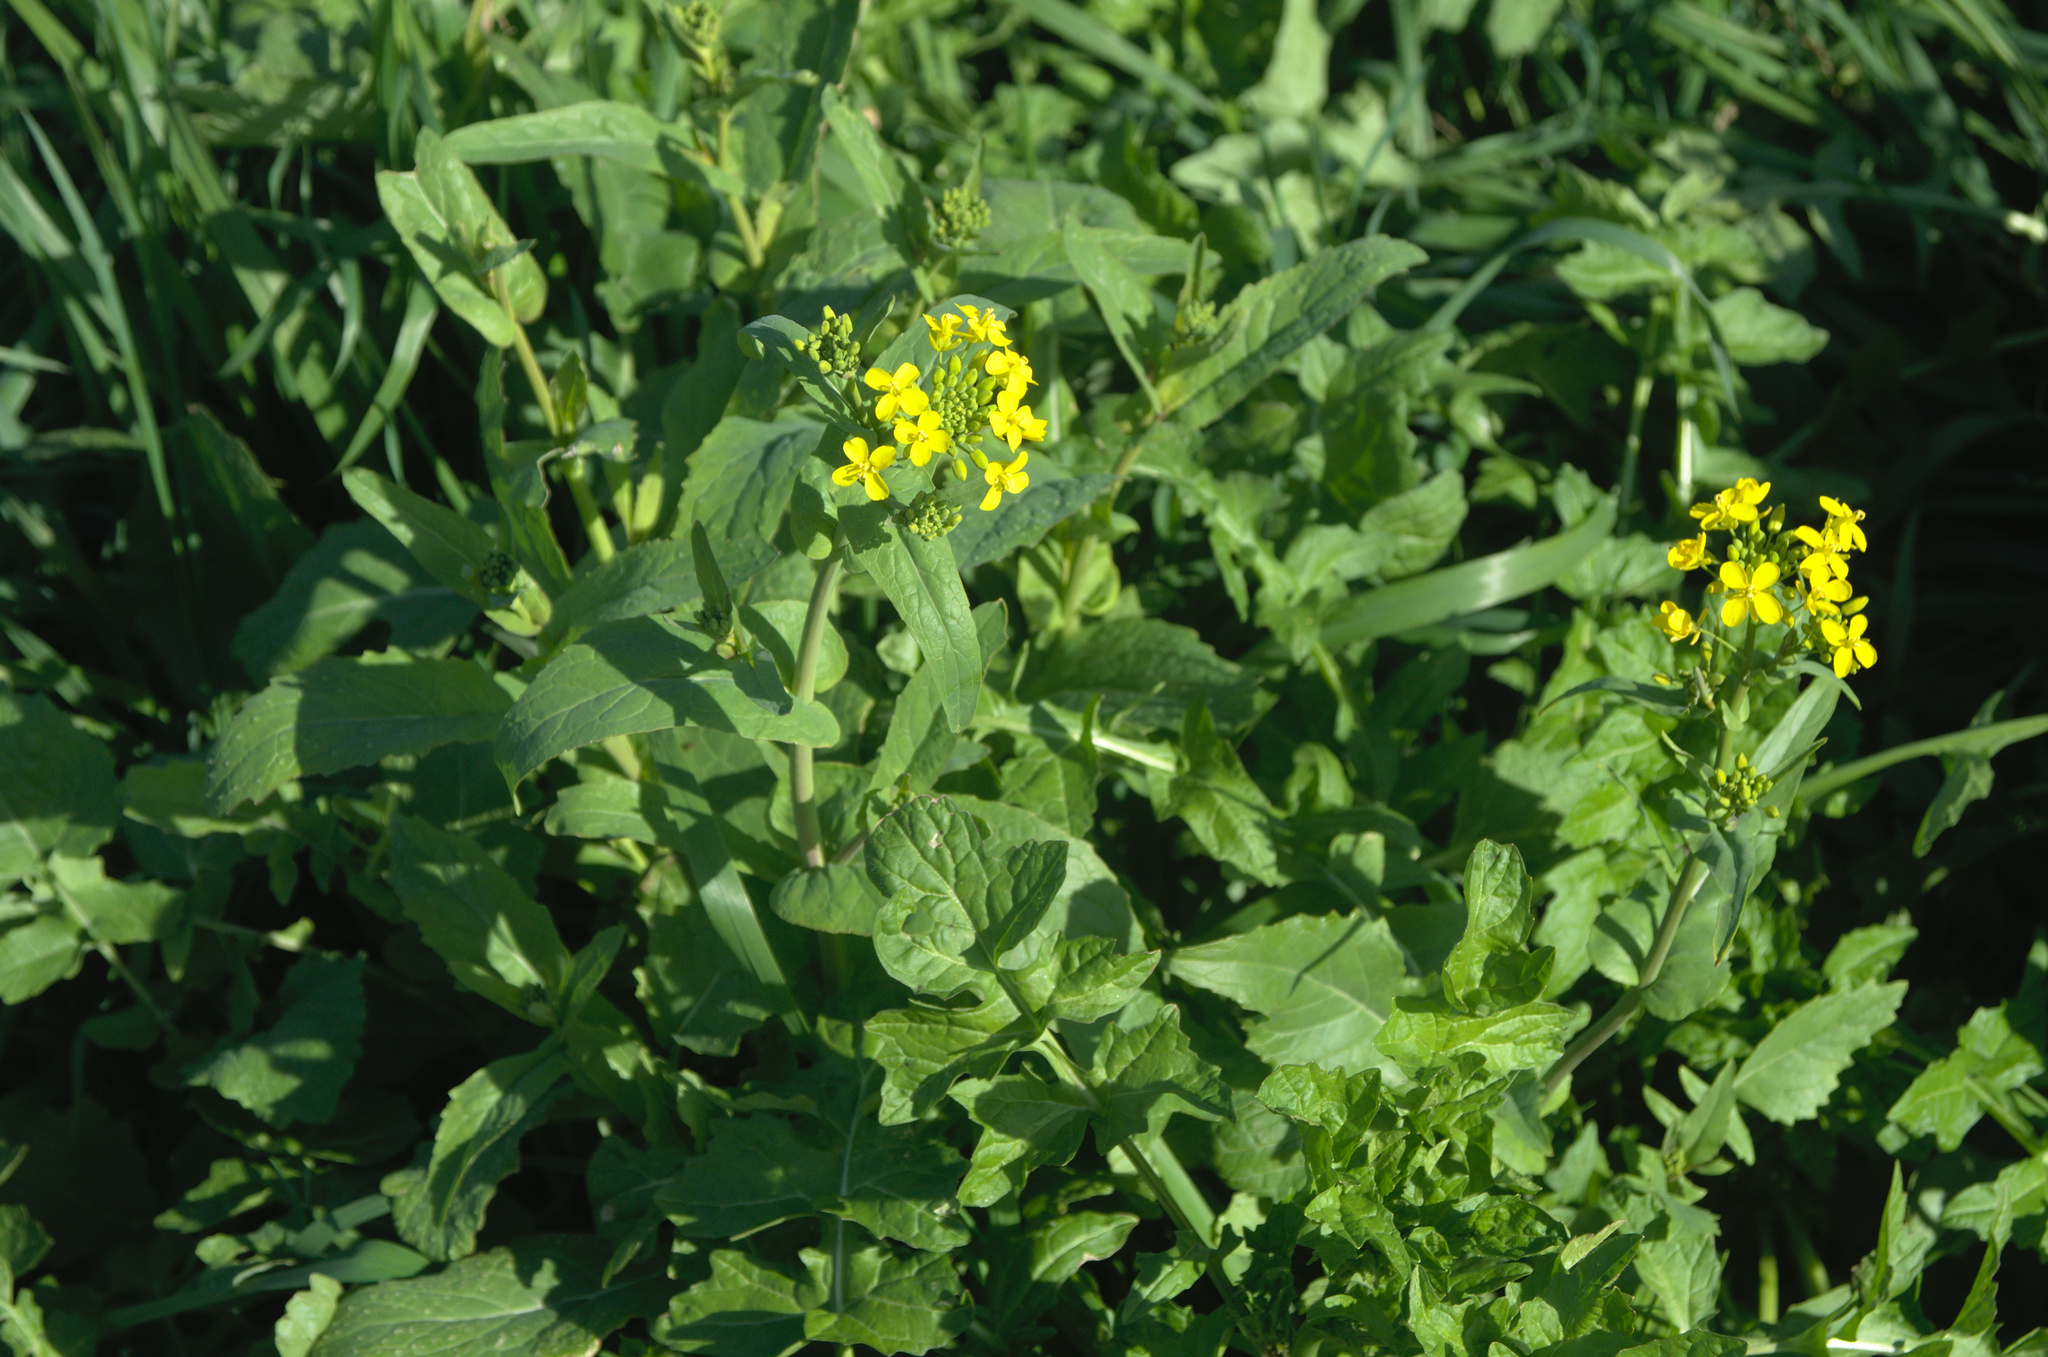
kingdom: Plantae
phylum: Tracheophyta
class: Magnoliopsida
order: Brassicales
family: Brassicaceae
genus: Brassica
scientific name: Brassica oleracea
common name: Cabbage
